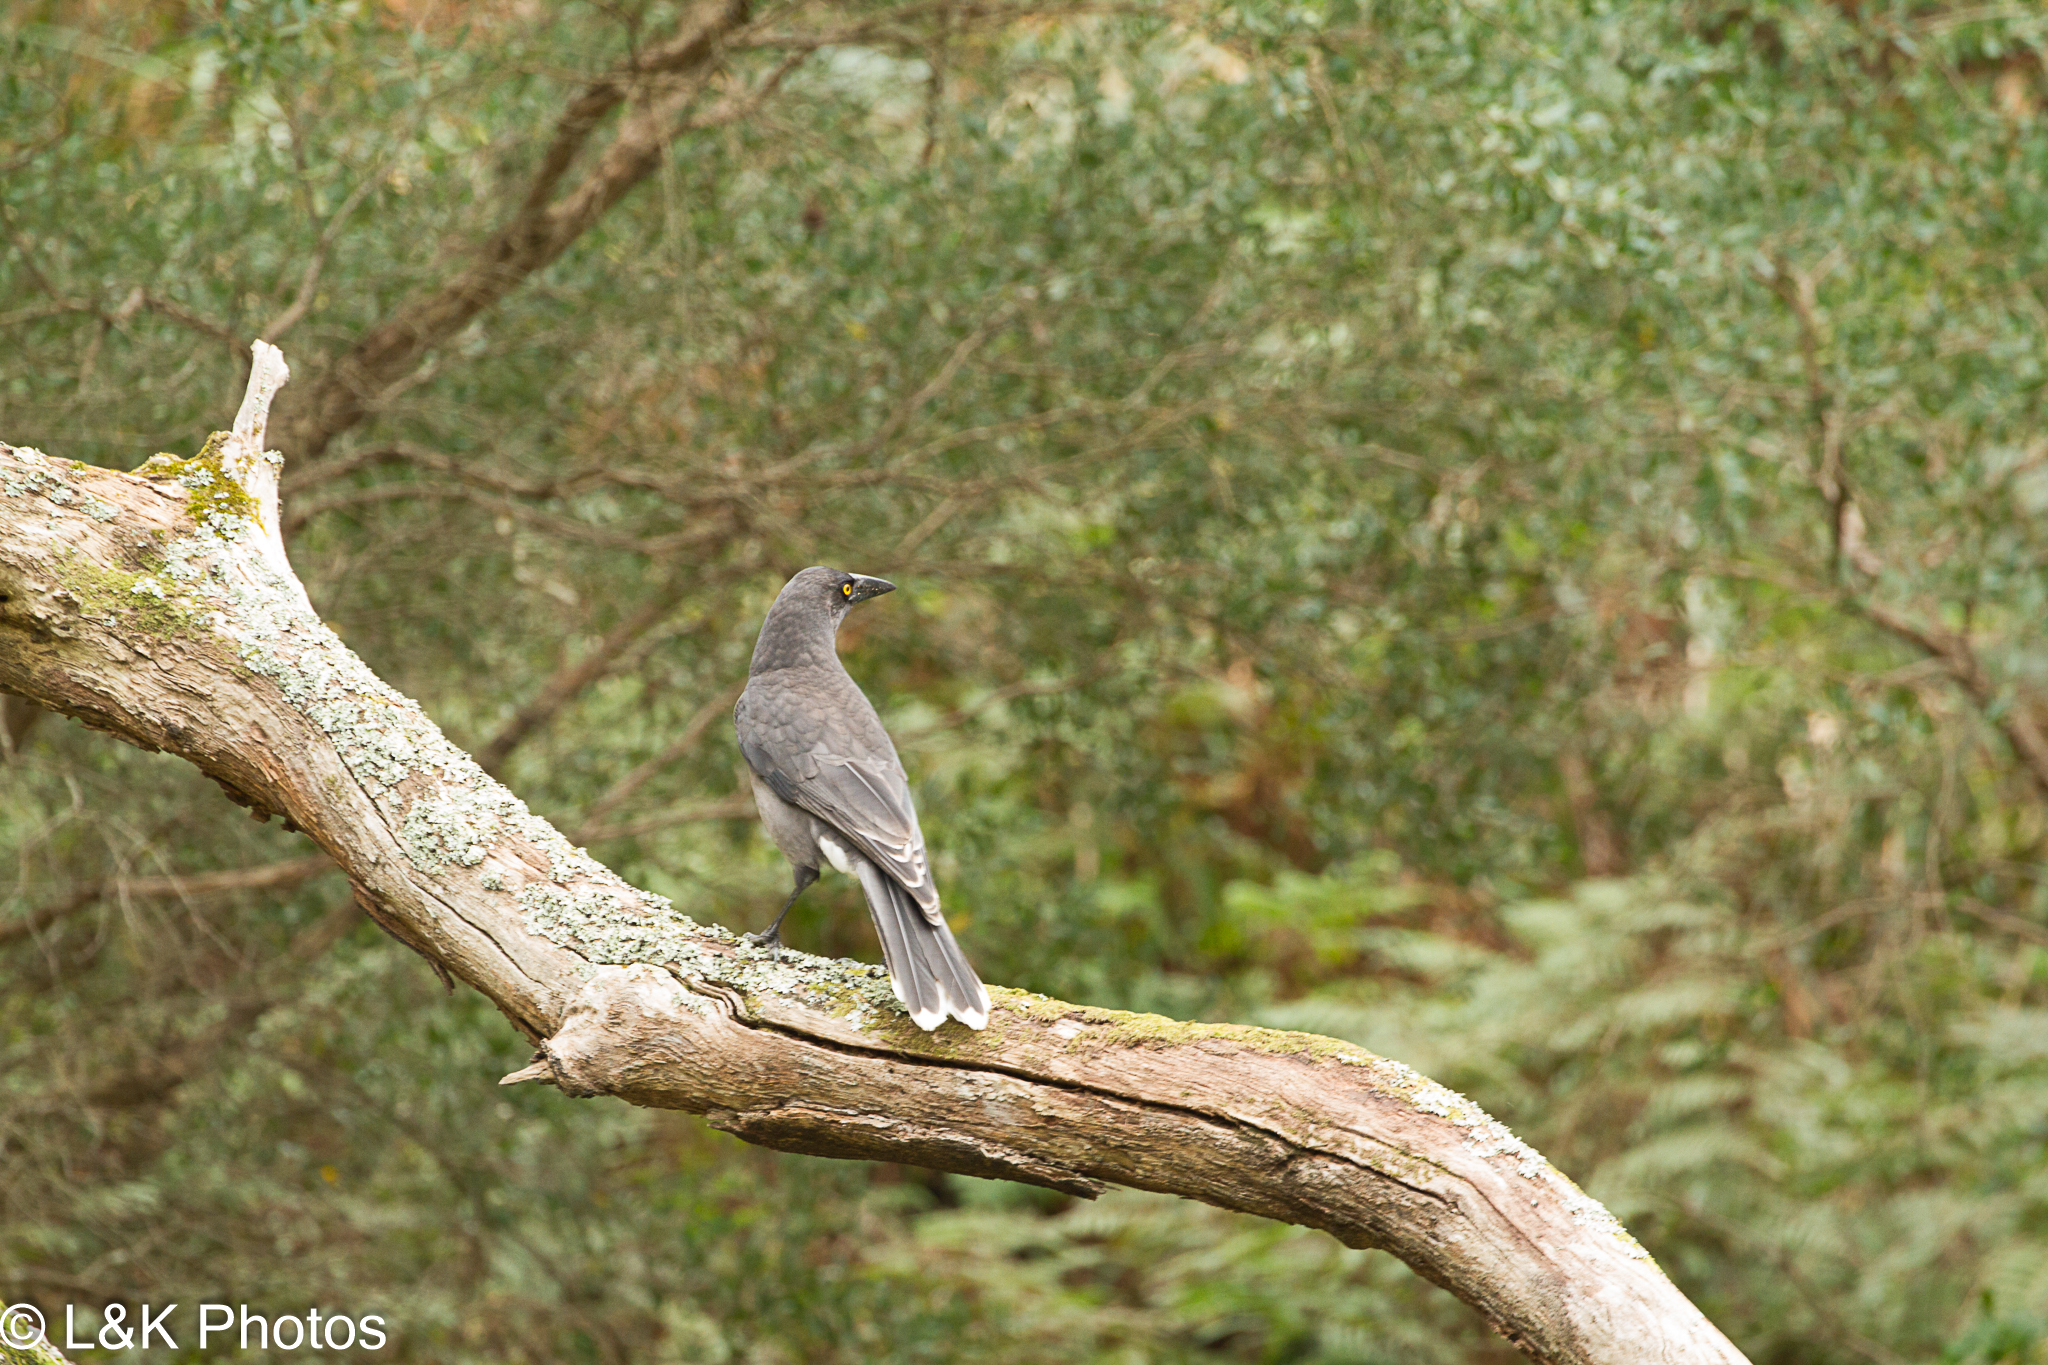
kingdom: Animalia
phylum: Chordata
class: Aves
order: Passeriformes
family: Cracticidae
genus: Strepera
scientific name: Strepera versicolor
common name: Grey currawong
